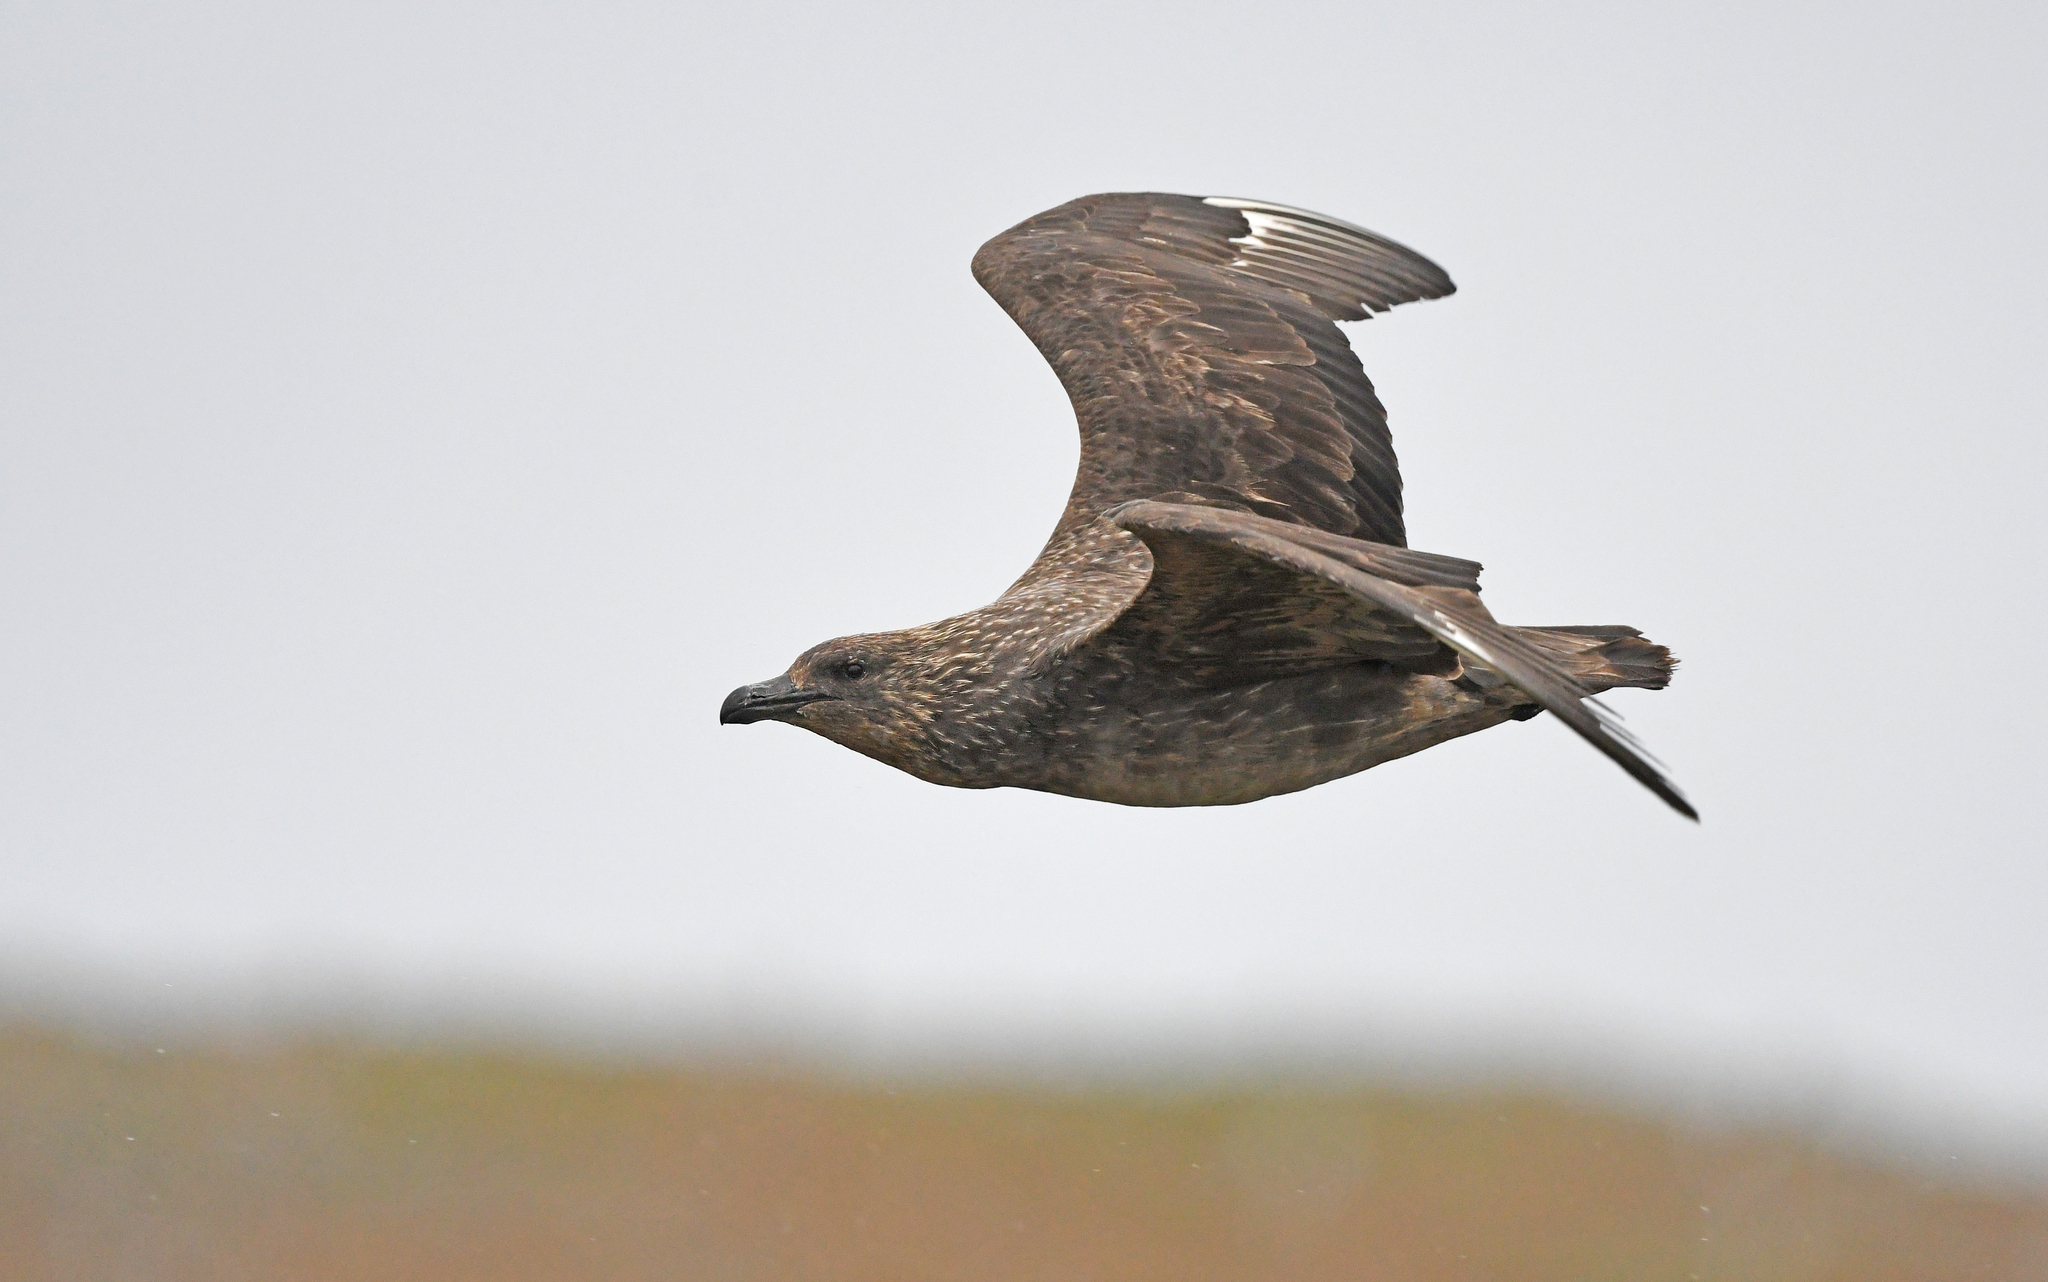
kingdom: Animalia
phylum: Chordata
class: Aves
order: Charadriiformes
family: Stercorariidae
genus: Stercorarius
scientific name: Stercorarius chilensis
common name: Chilean skua
